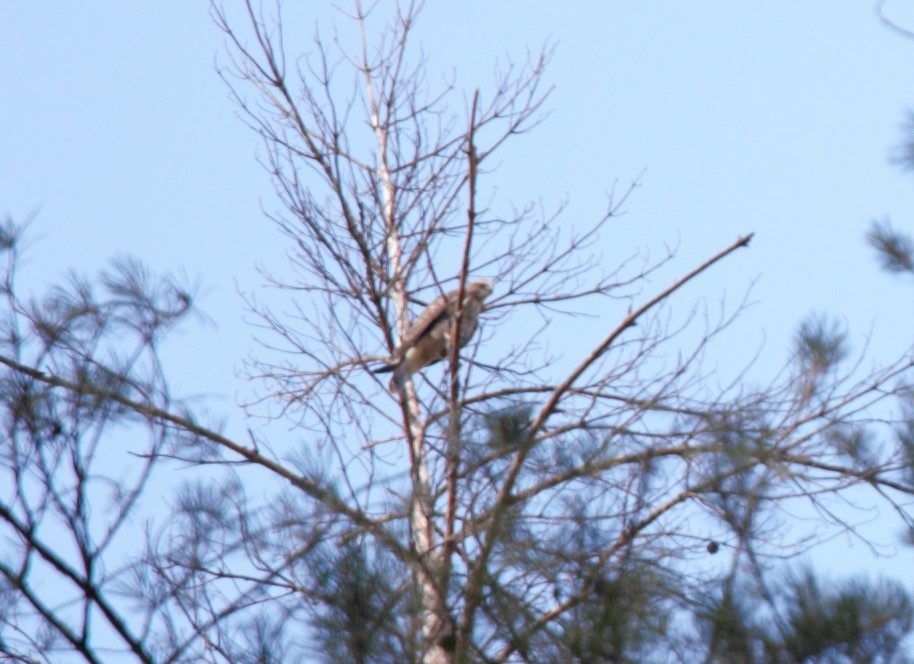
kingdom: Animalia
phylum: Chordata
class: Aves
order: Accipitriformes
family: Accipitridae
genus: Buteo
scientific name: Buteo buteo
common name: Common buzzard
